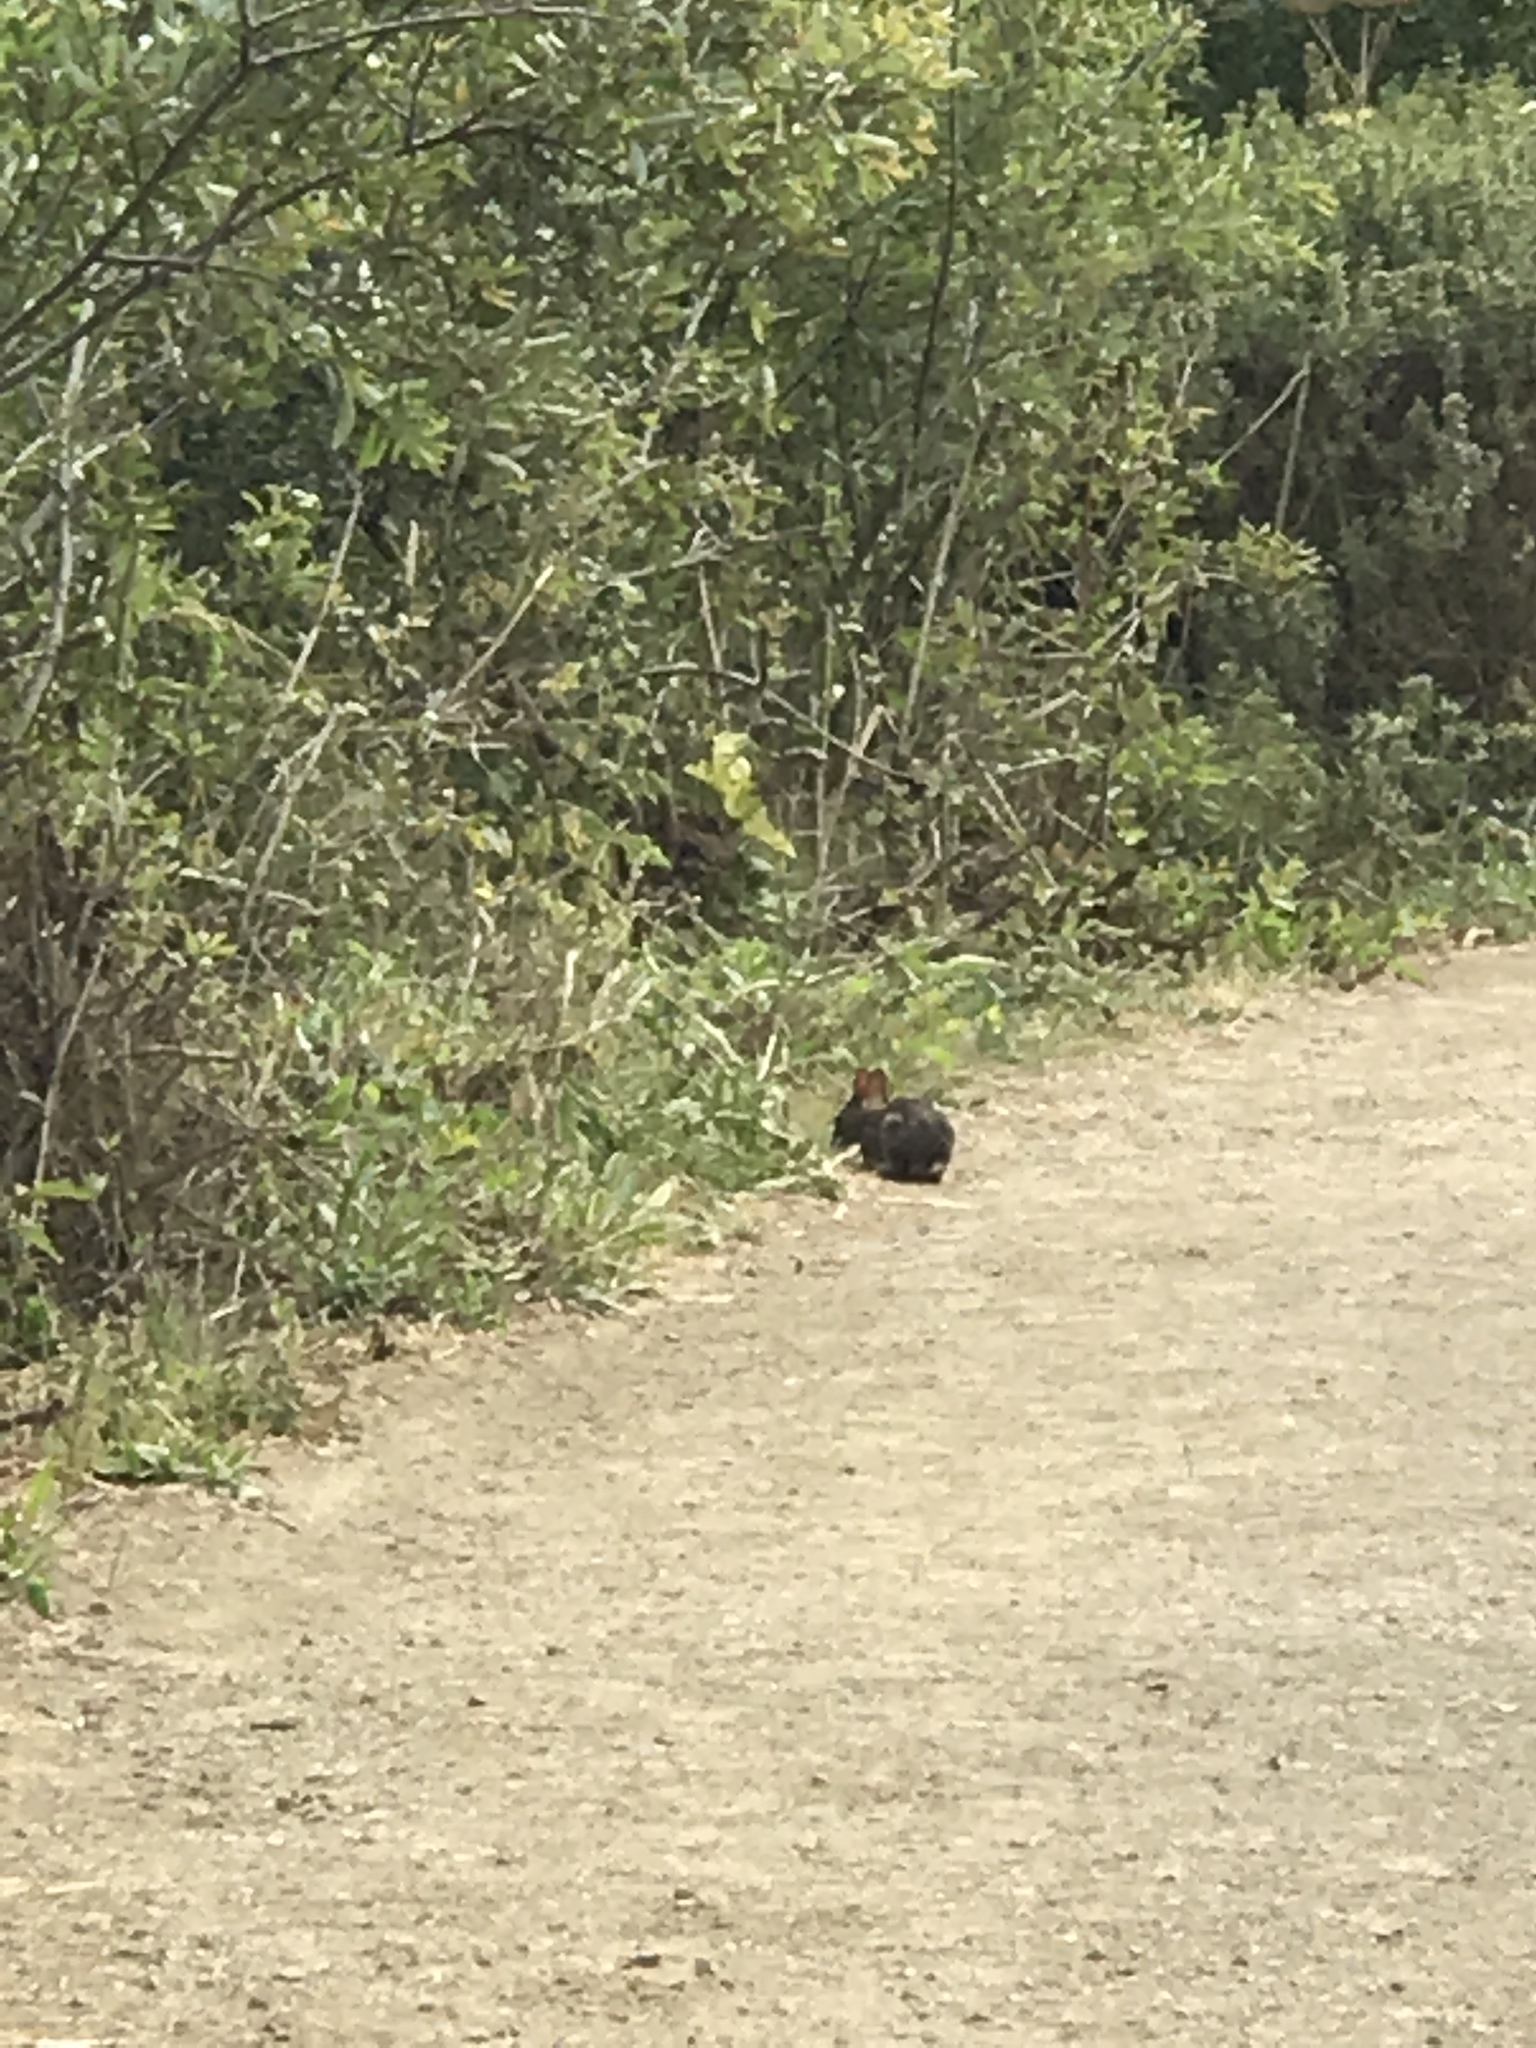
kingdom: Animalia
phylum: Chordata
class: Mammalia
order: Lagomorpha
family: Leporidae
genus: Sylvilagus
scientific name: Sylvilagus bachmani
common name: Brush rabbit
